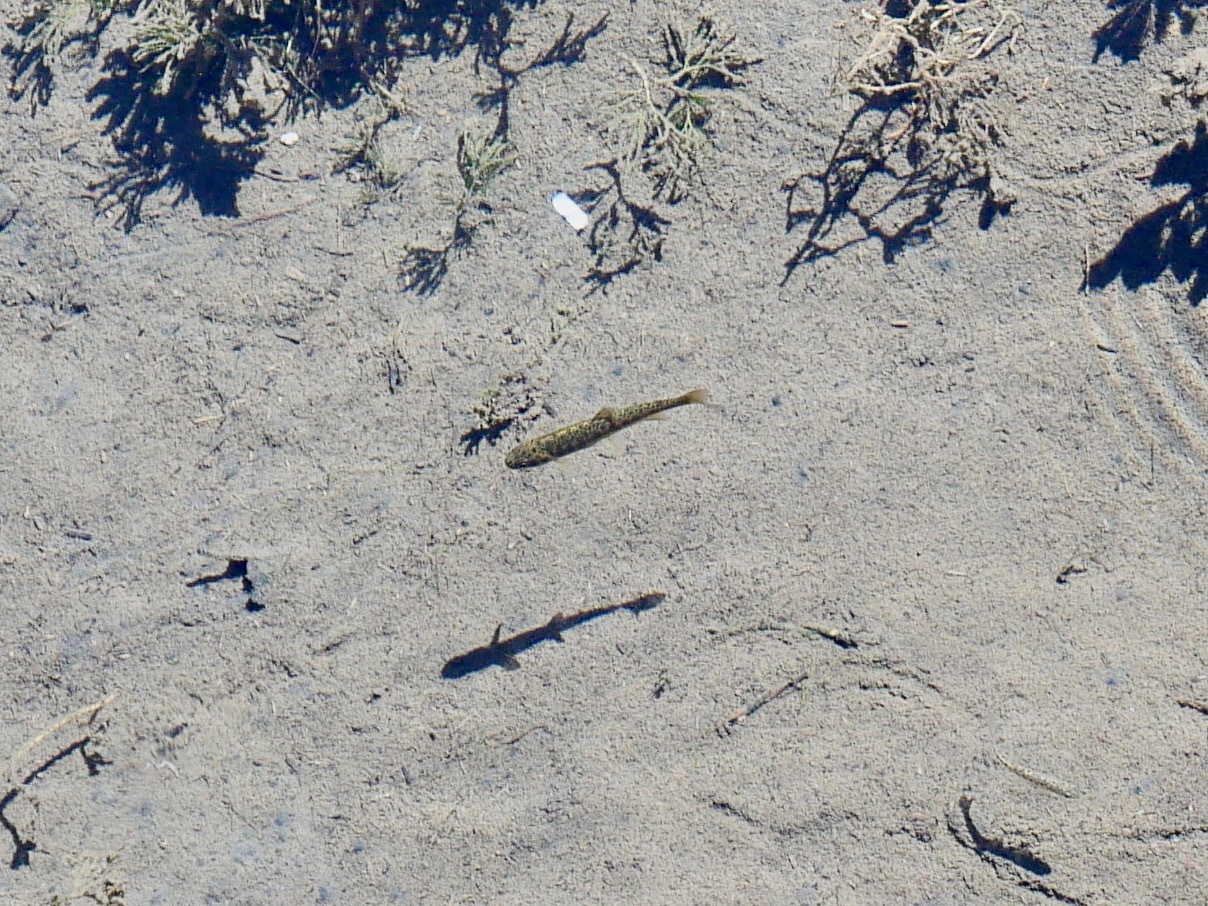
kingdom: Animalia
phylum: Chordata
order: Salmoniformes
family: Salmonidae
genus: Oncorhynchus
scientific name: Oncorhynchus mykiss
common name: Rainbow trout
